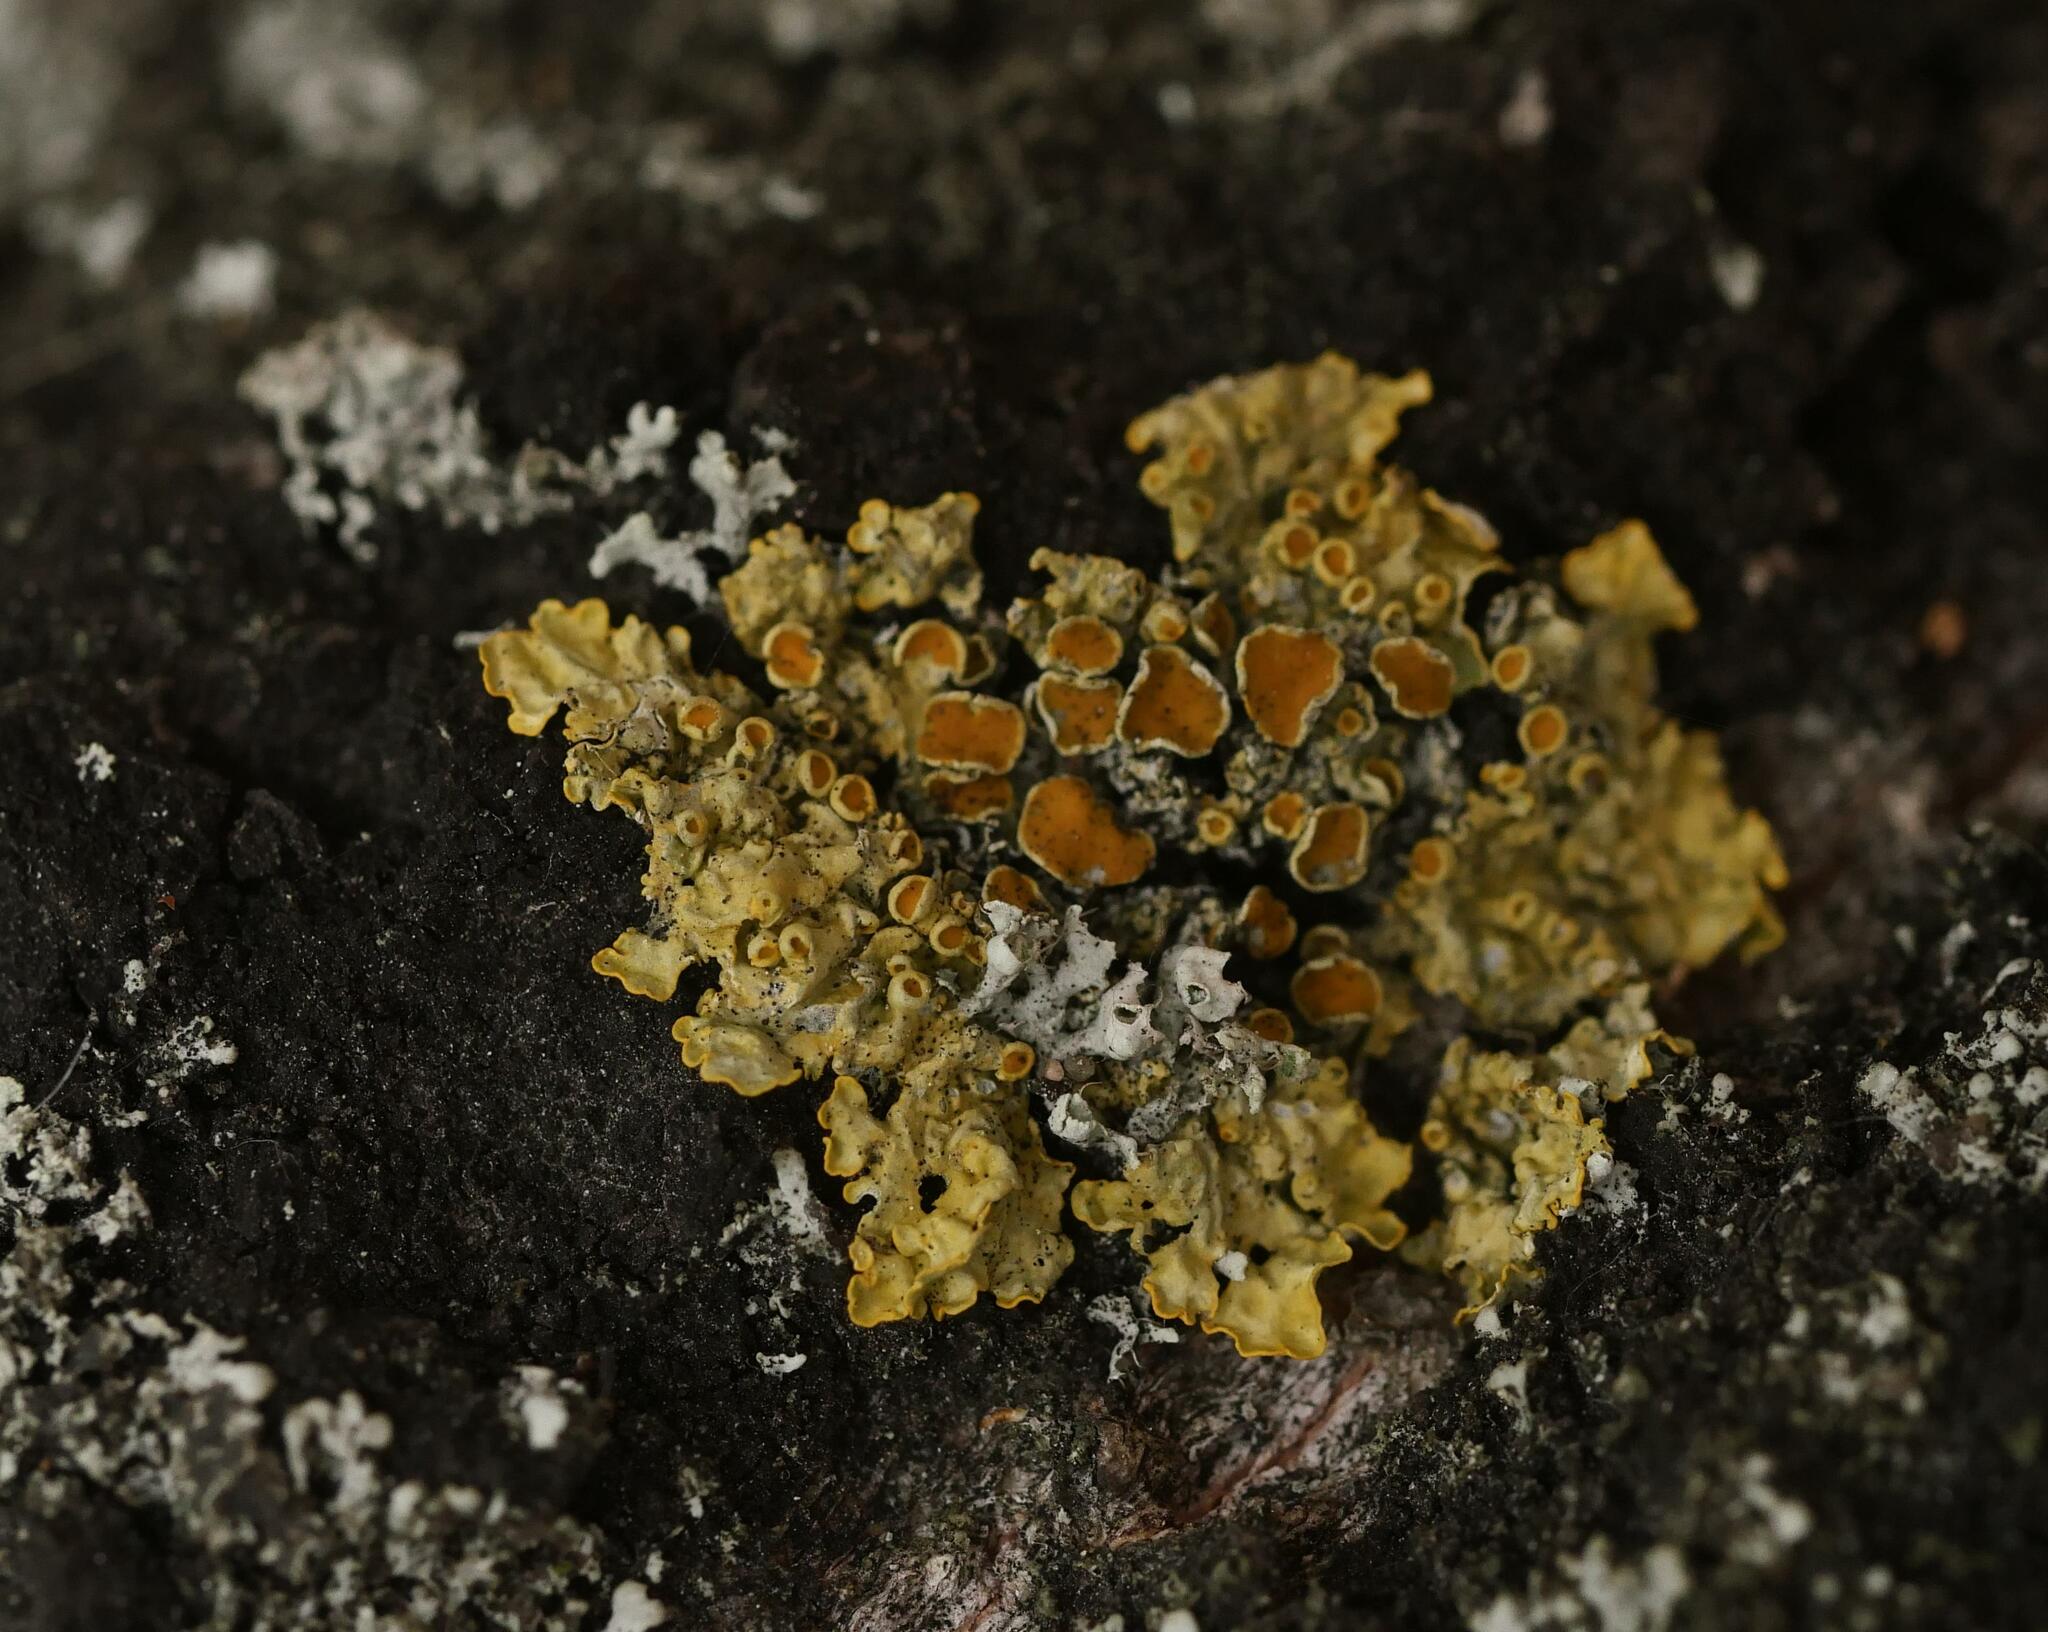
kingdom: Fungi
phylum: Ascomycota
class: Lecanoromycetes
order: Teloschistales
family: Teloschistaceae
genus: Xanthoria
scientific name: Xanthoria parietina
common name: Common orange lichen
